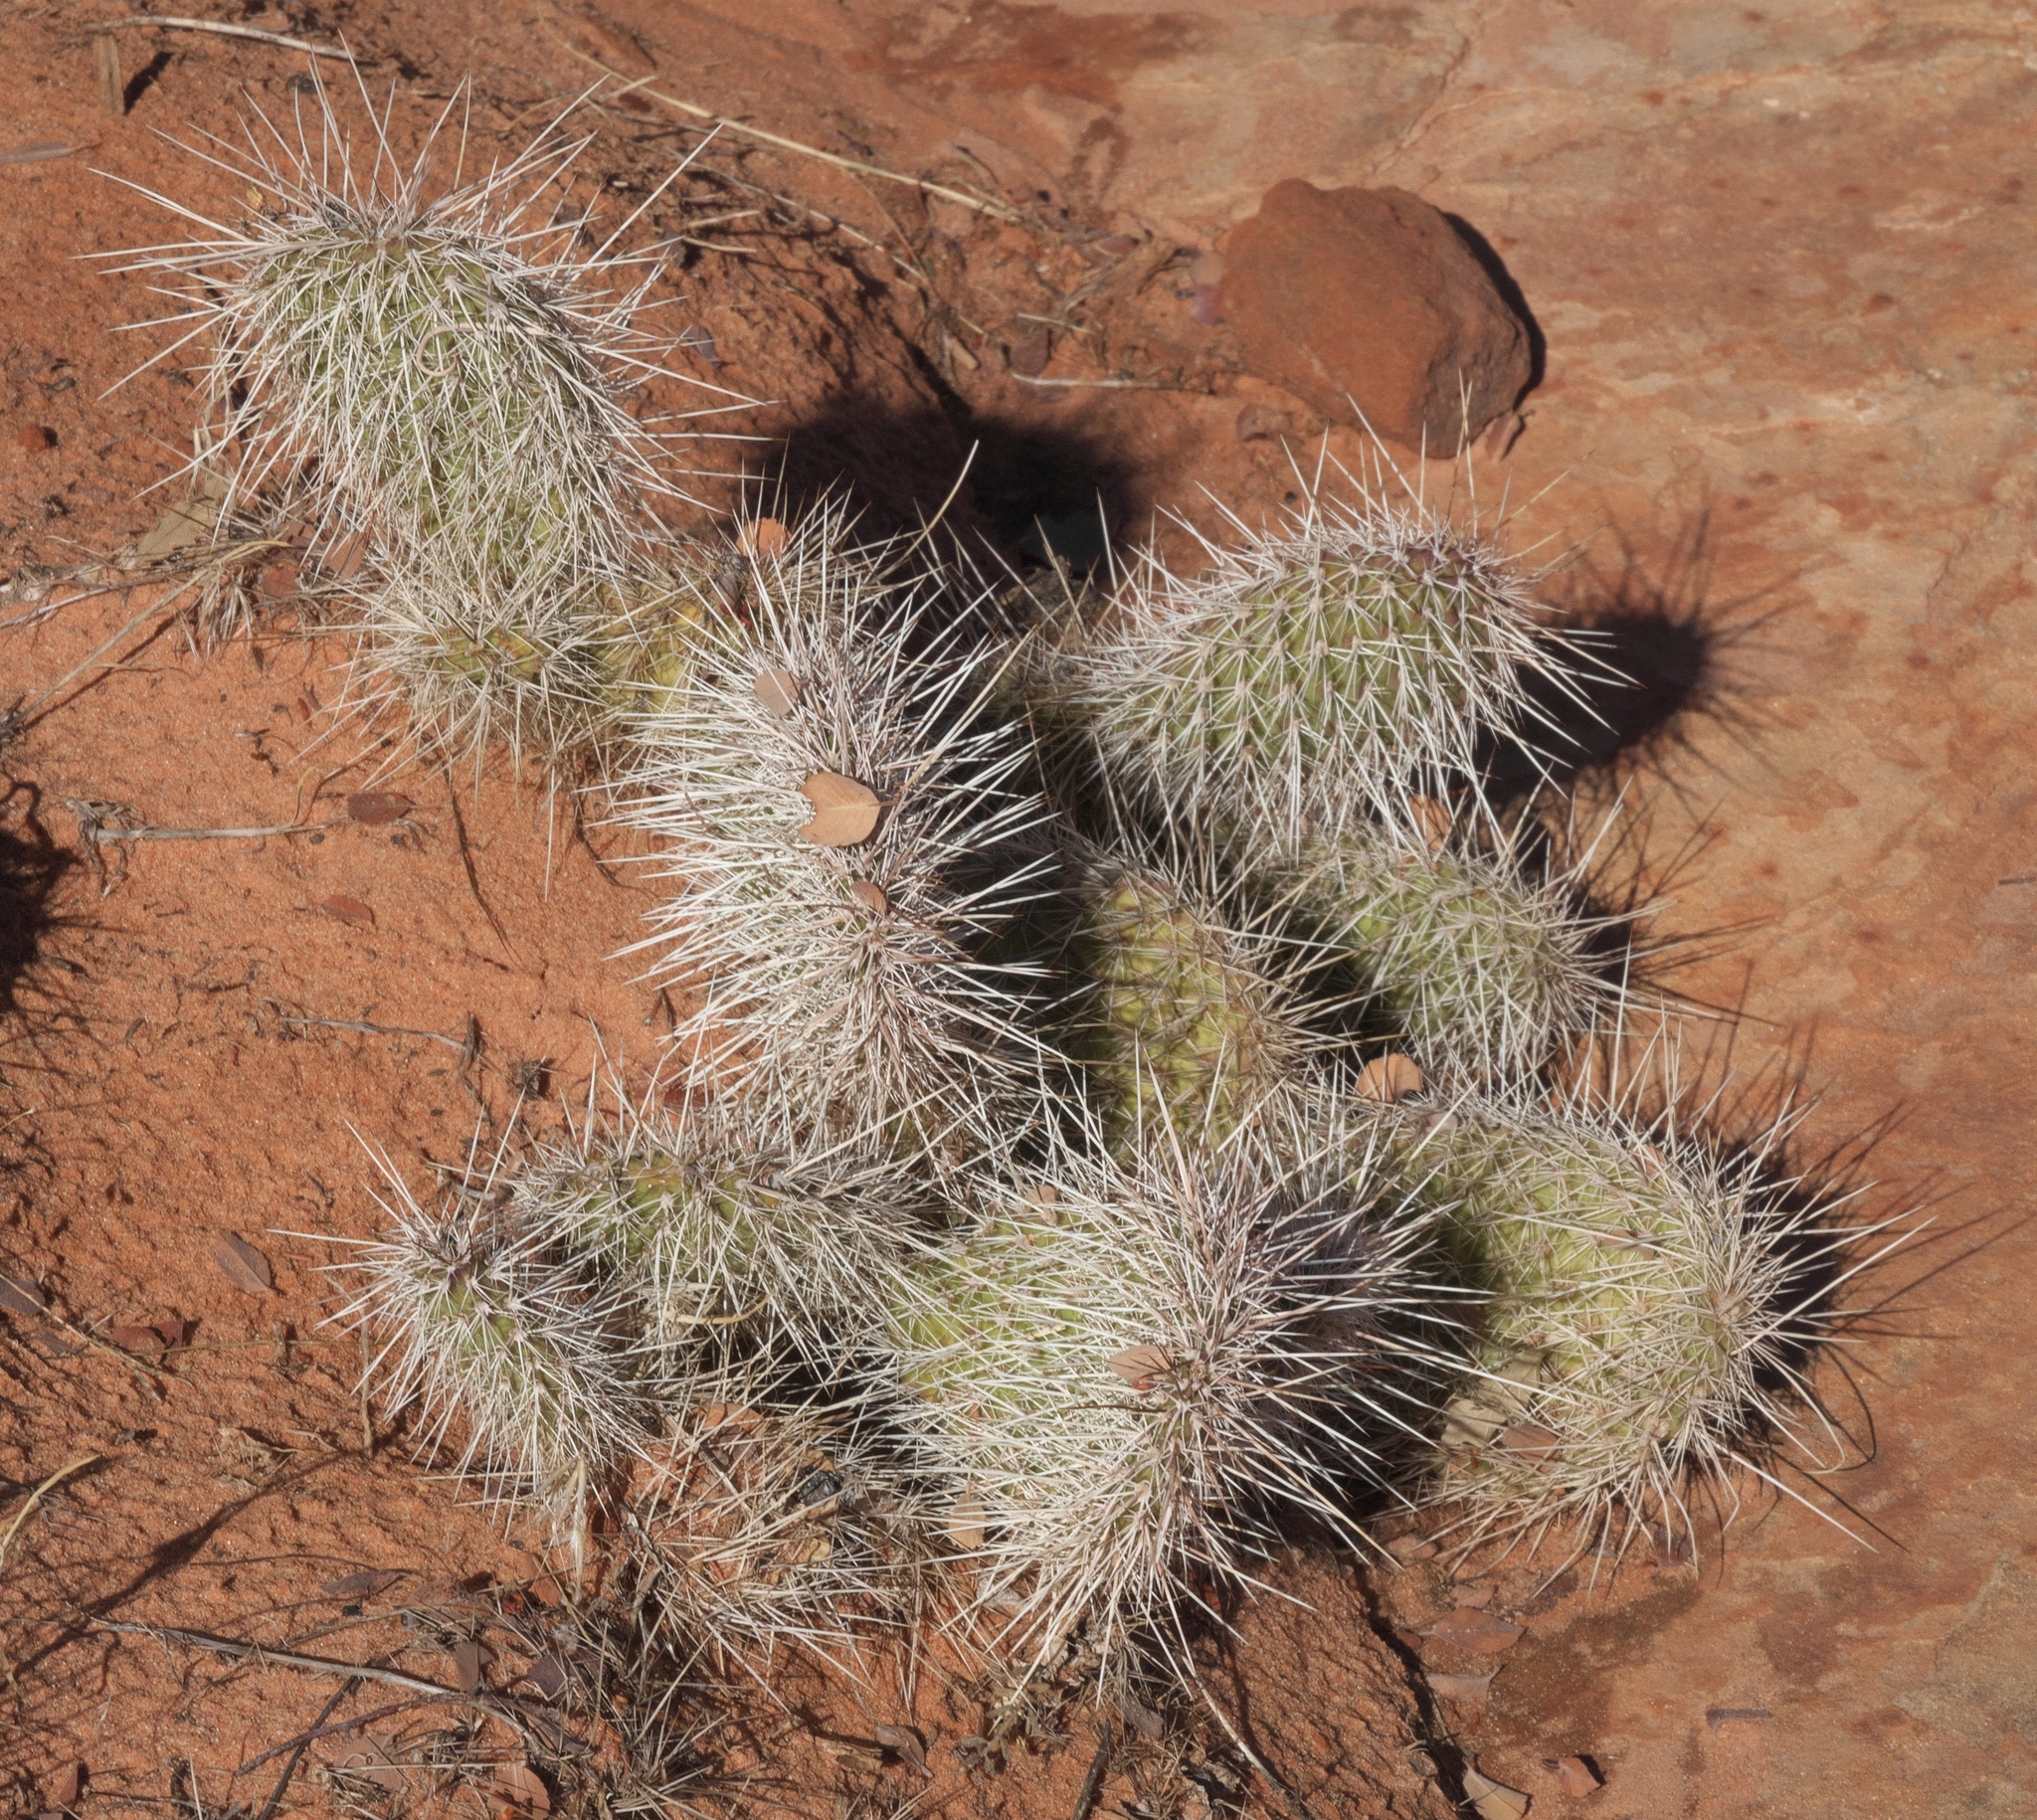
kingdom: Plantae
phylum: Tracheophyta
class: Magnoliopsida
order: Caryophyllales
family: Cactaceae
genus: Opuntia
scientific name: Opuntia polyacantha
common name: Plains prickly-pear
